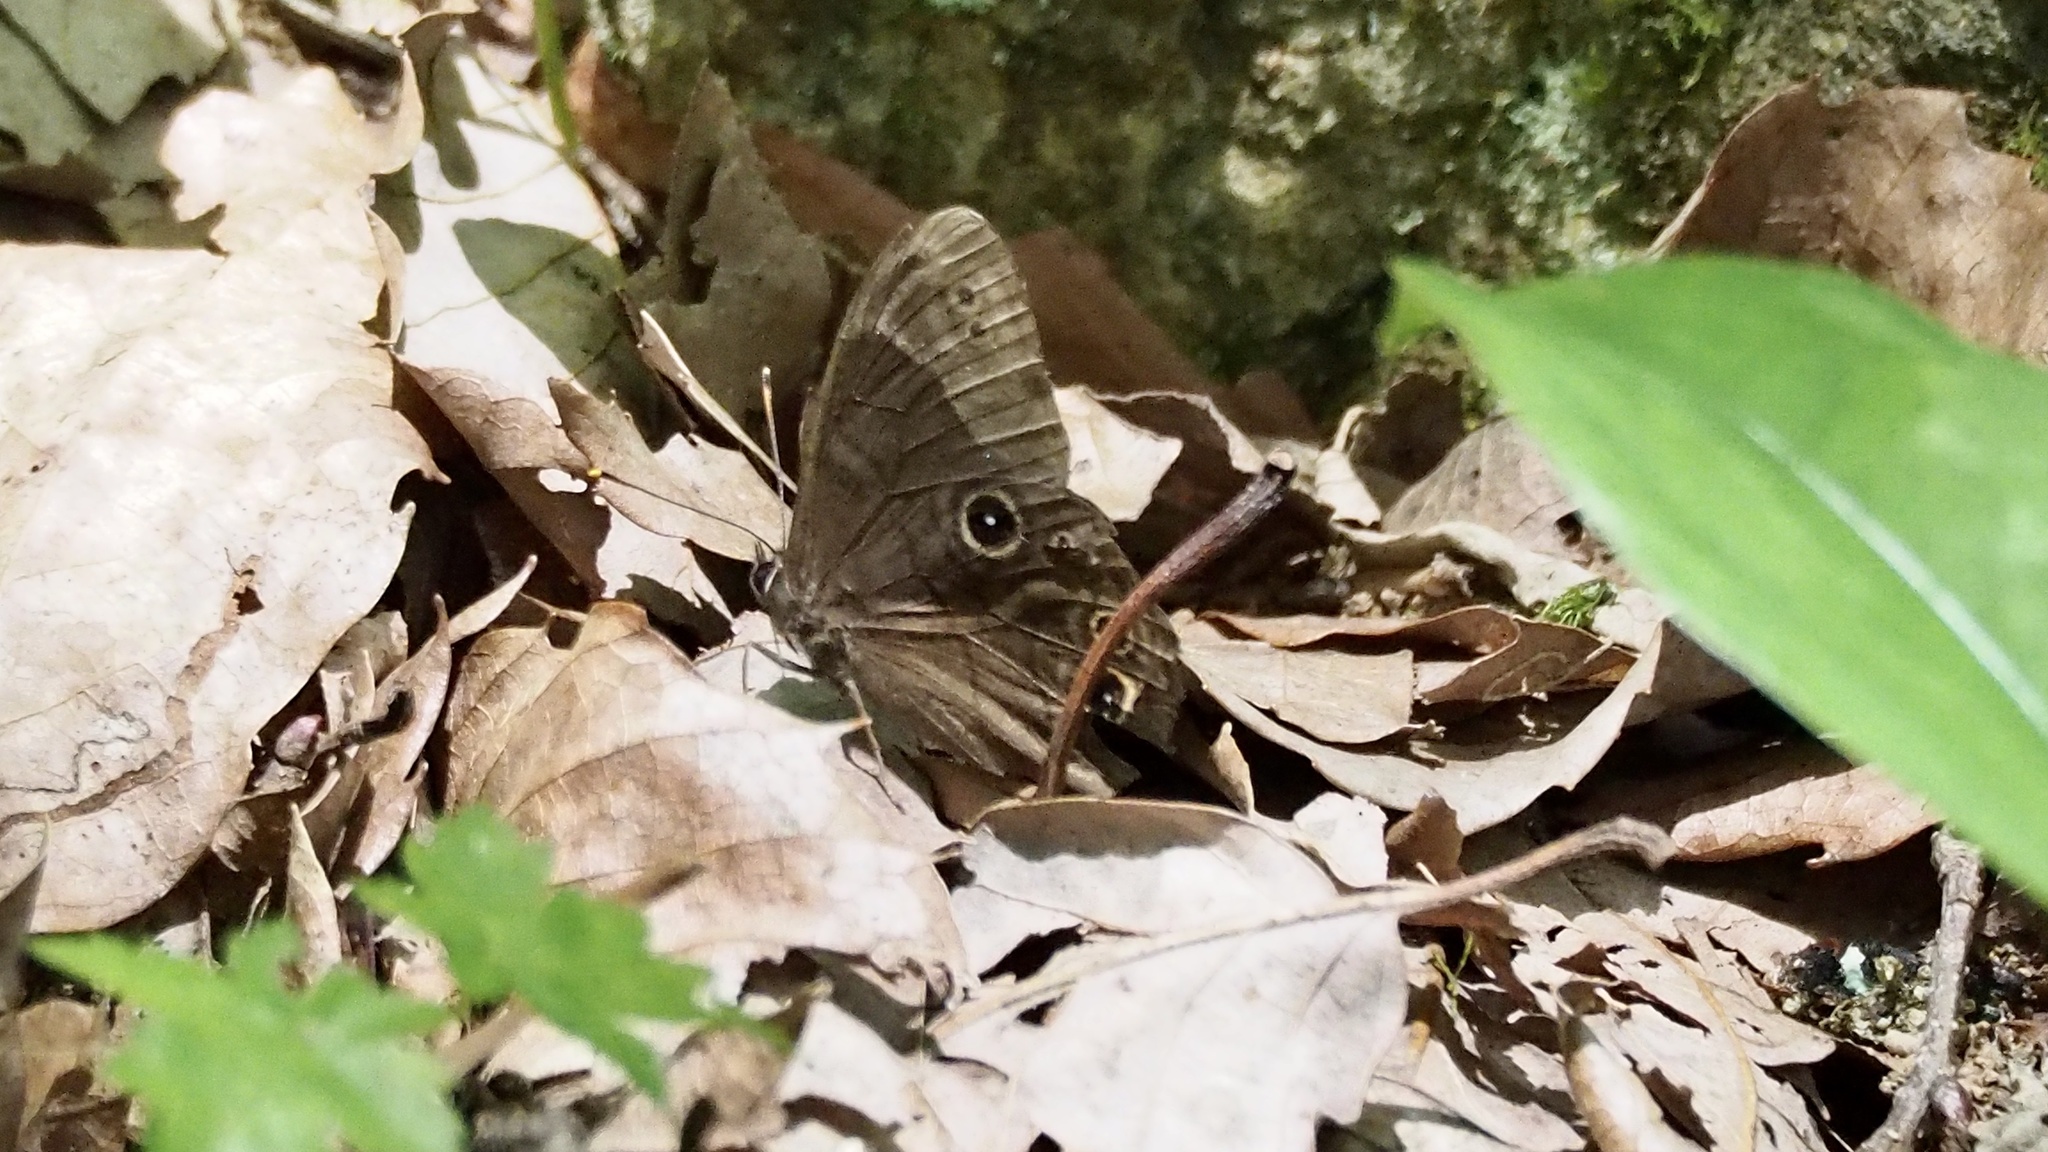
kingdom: Animalia
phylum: Arthropoda
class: Insecta
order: Lepidoptera
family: Nymphalidae
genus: Lethe
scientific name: Lethe diana
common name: Diana treebrown
